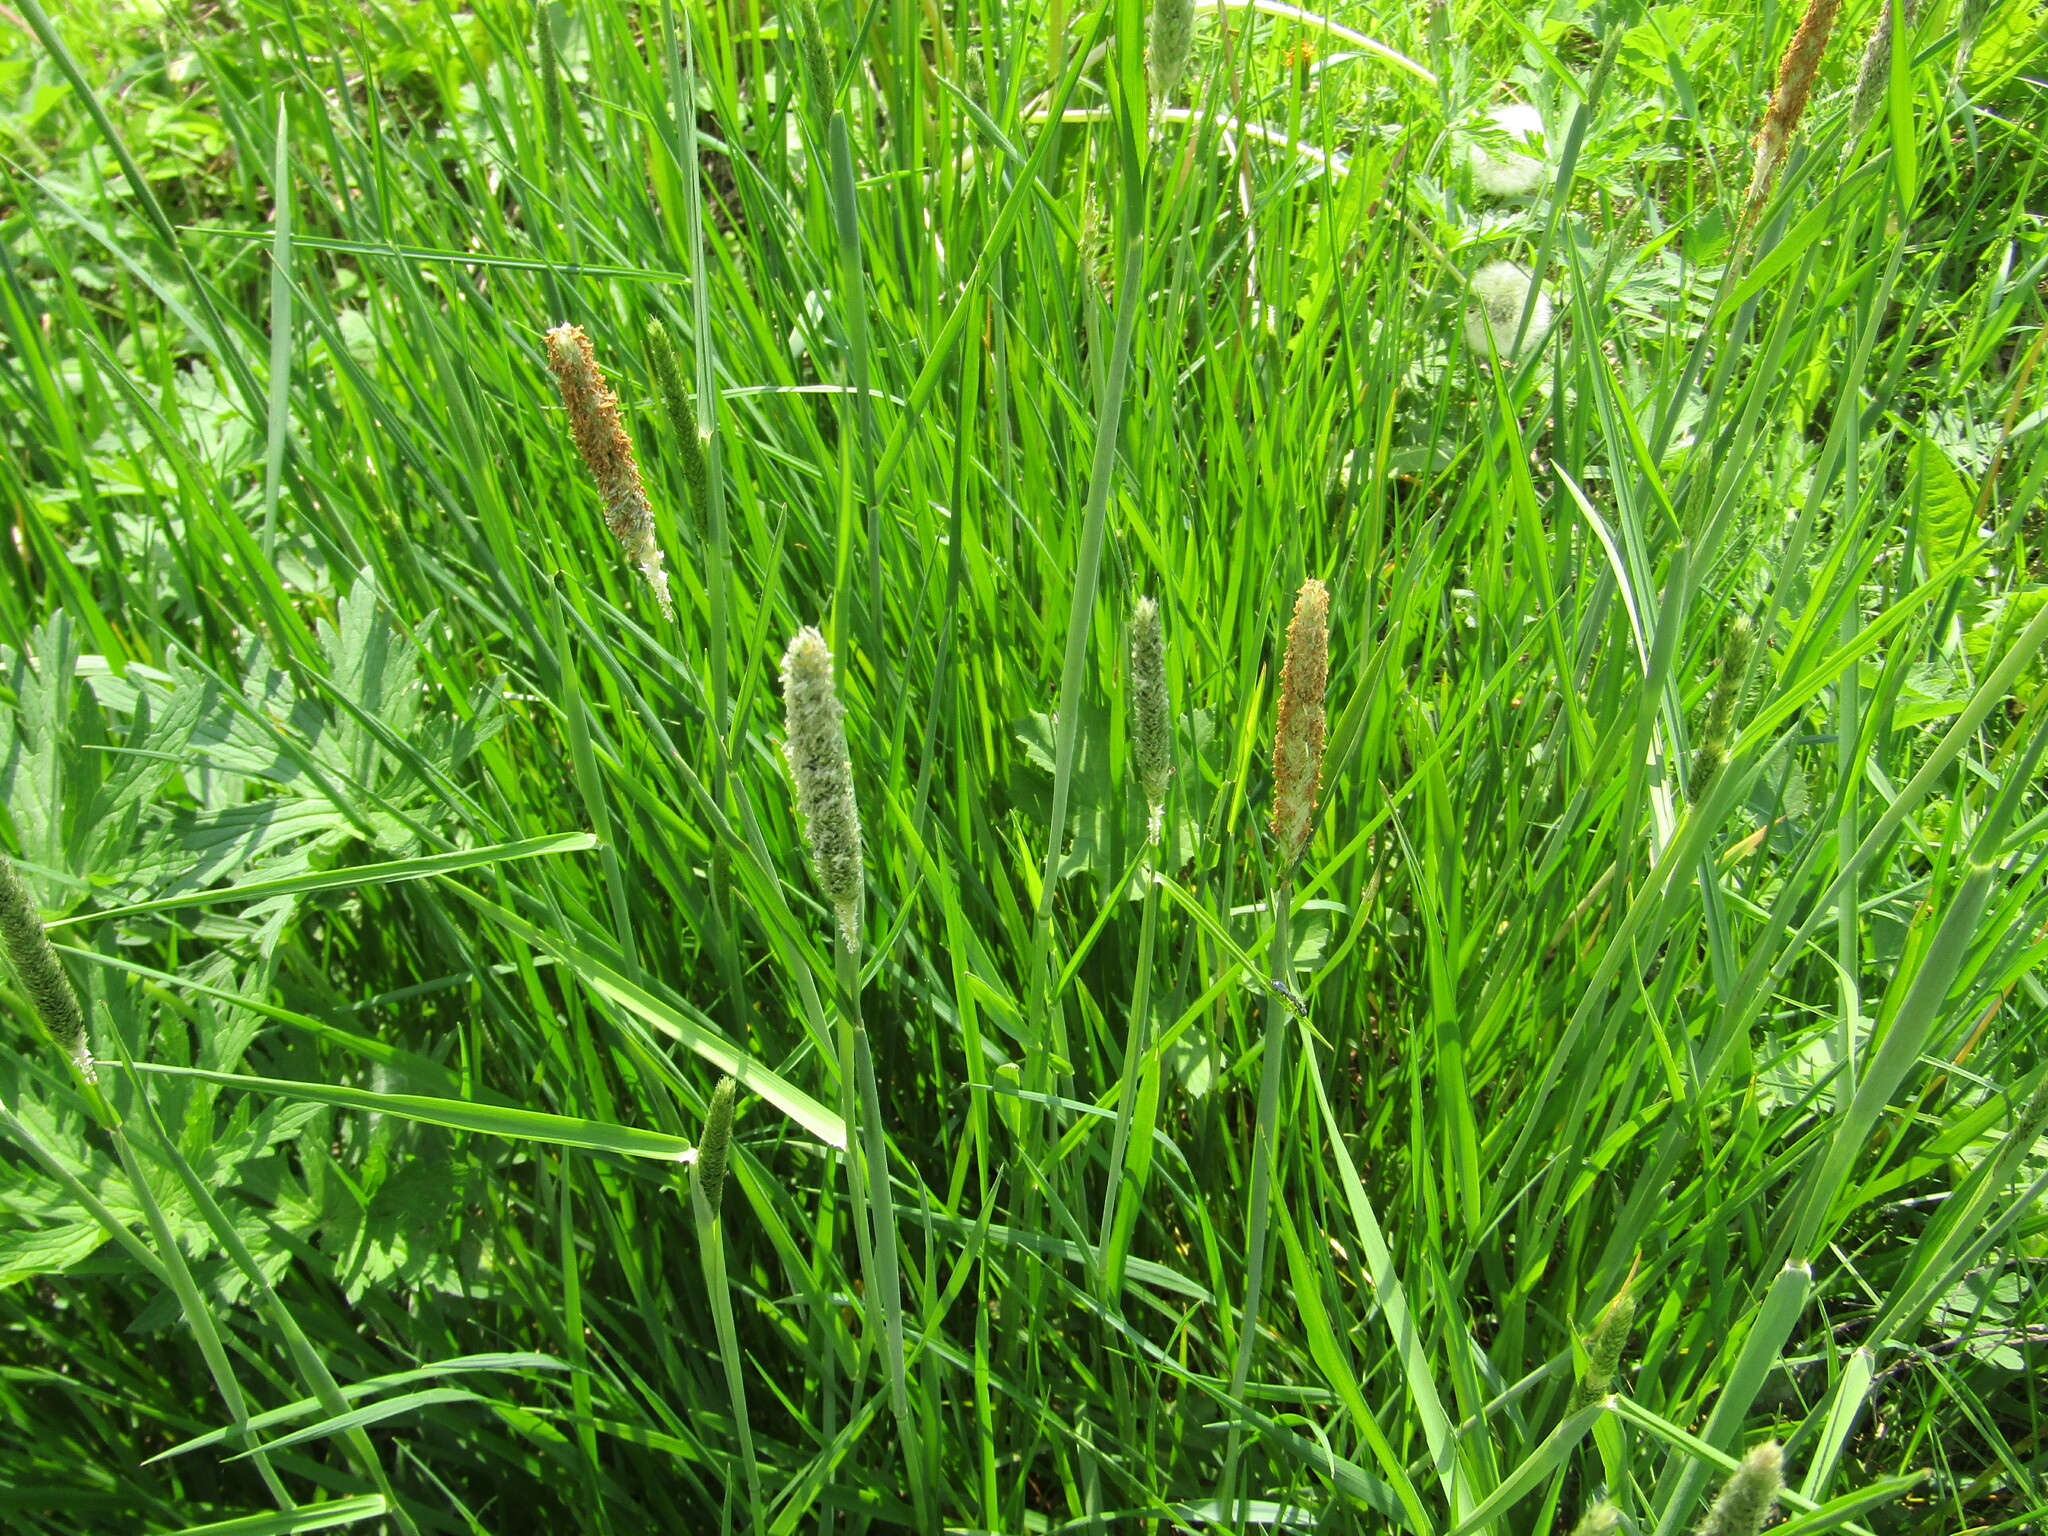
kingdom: Plantae
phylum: Tracheophyta
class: Liliopsida
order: Poales
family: Poaceae
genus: Alopecurus
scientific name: Alopecurus pratensis
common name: Meadow foxtail
